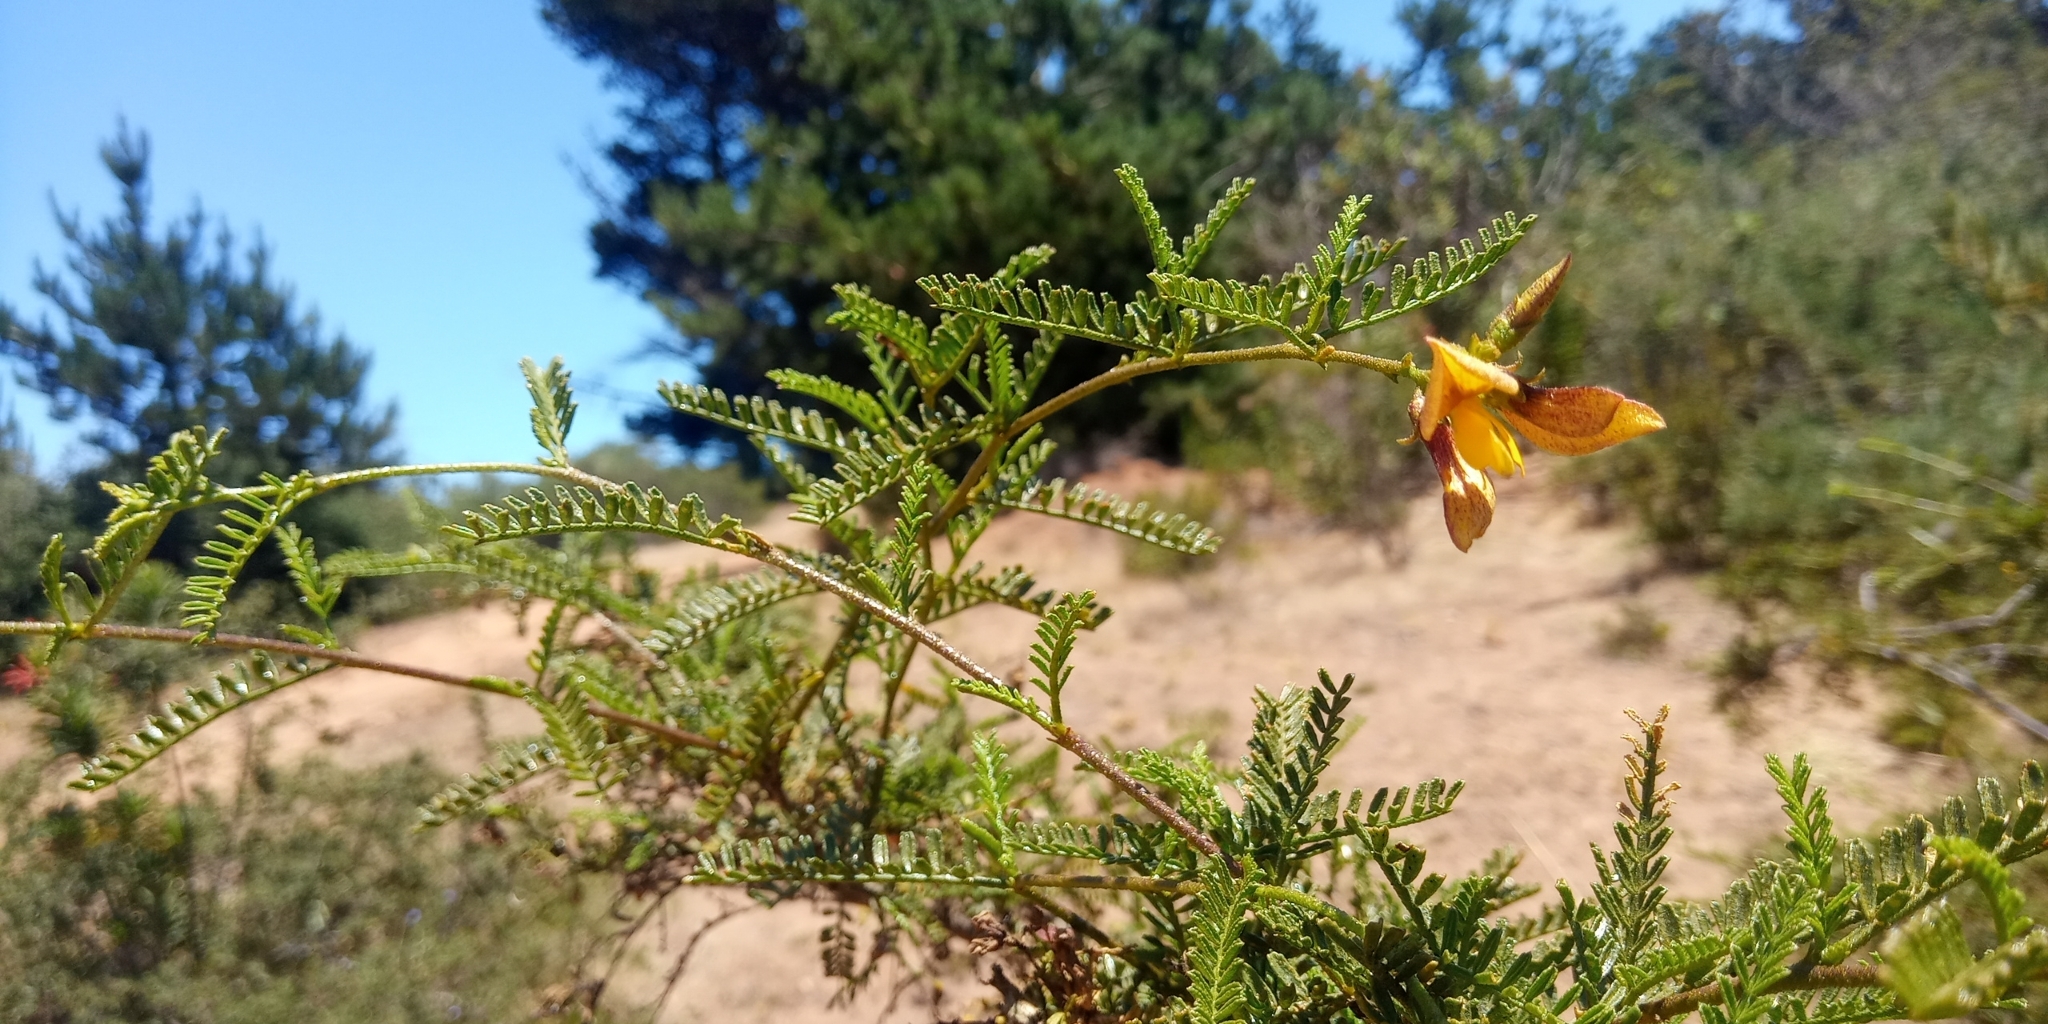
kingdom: Plantae
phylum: Tracheophyta
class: Magnoliopsida
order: Fabales
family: Fabaceae
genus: Adesmia
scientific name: Adesmia balsamica
